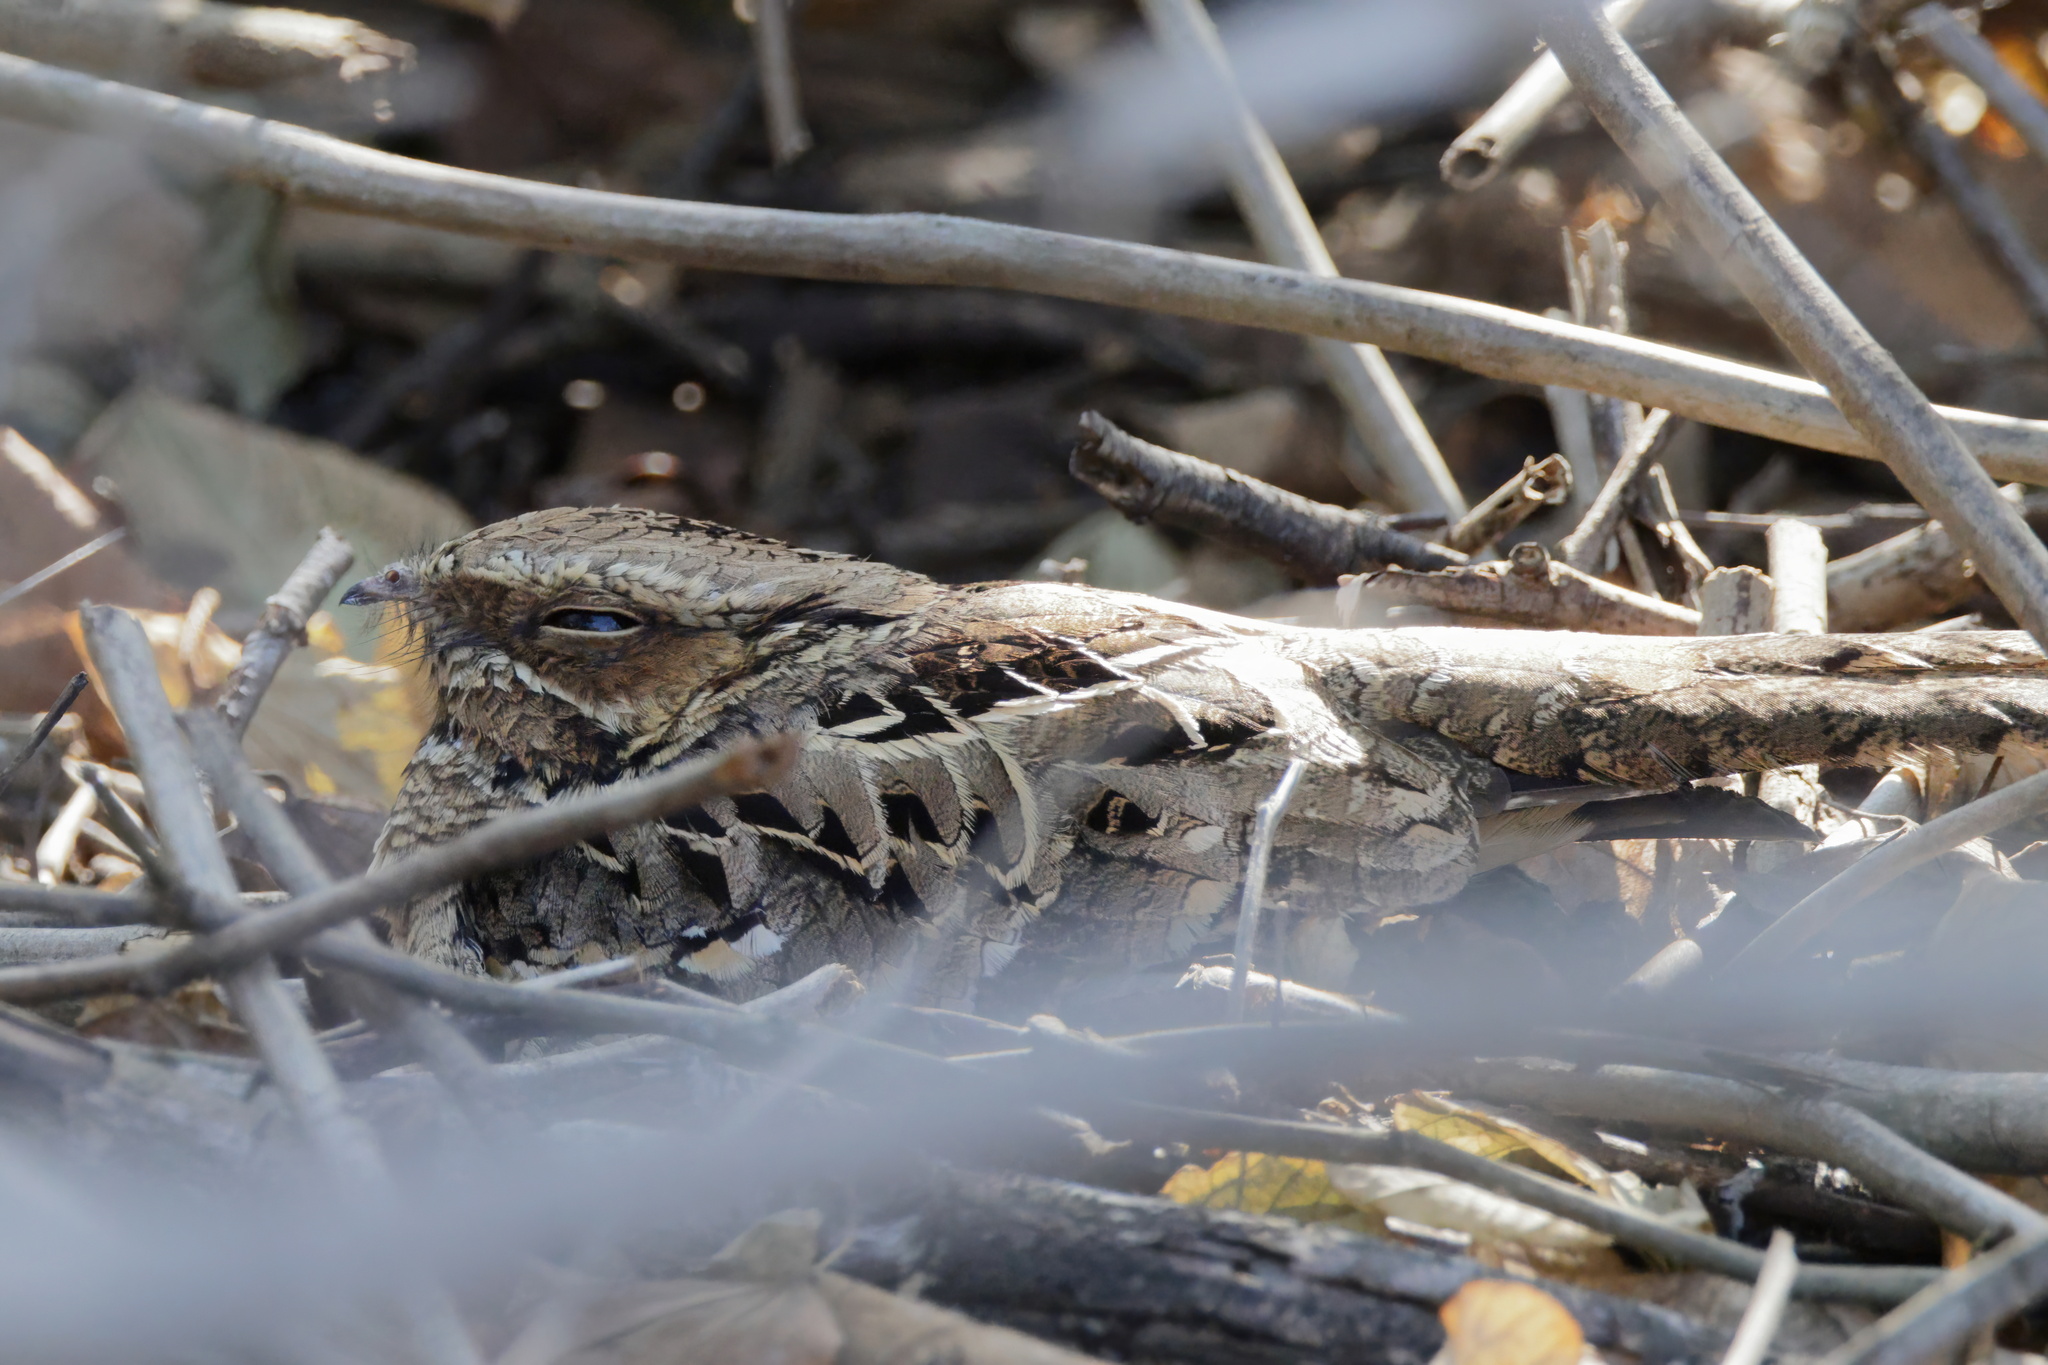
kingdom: Animalia
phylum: Chordata
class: Aves
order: Caprimulgiformes
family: Caprimulgidae
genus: Nyctidromus
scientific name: Nyctidromus albicollis
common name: Pauraque
